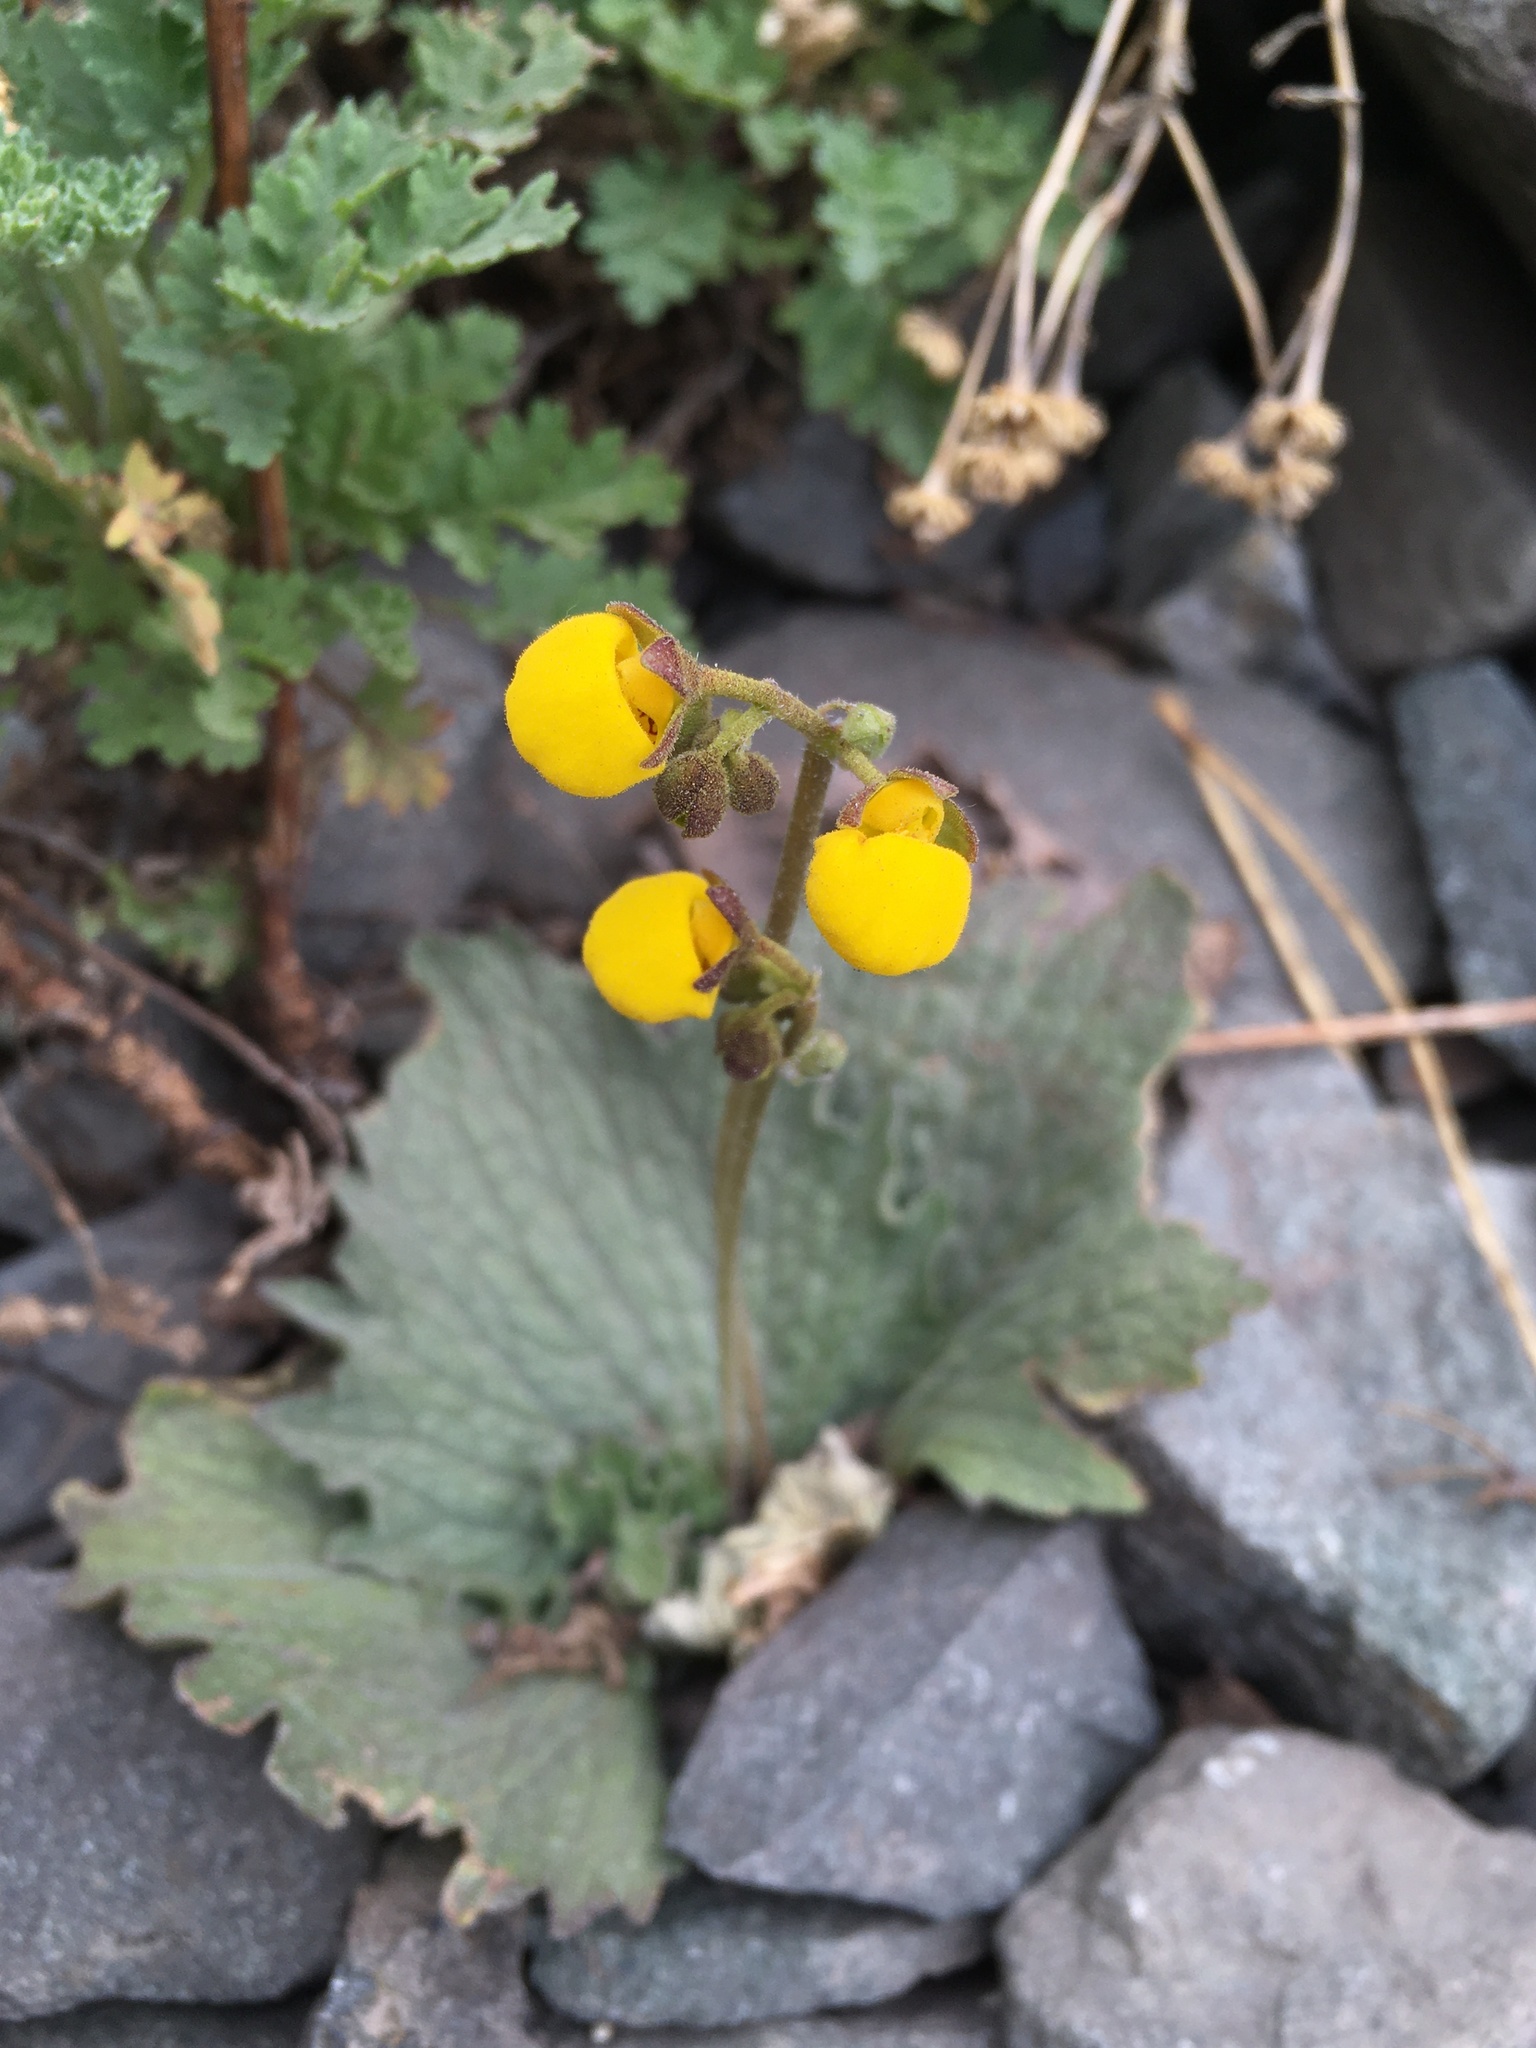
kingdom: Plantae
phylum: Tracheophyta
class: Magnoliopsida
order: Lamiales
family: Calceolariaceae
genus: Calceolaria
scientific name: Calceolaria filicaulis
